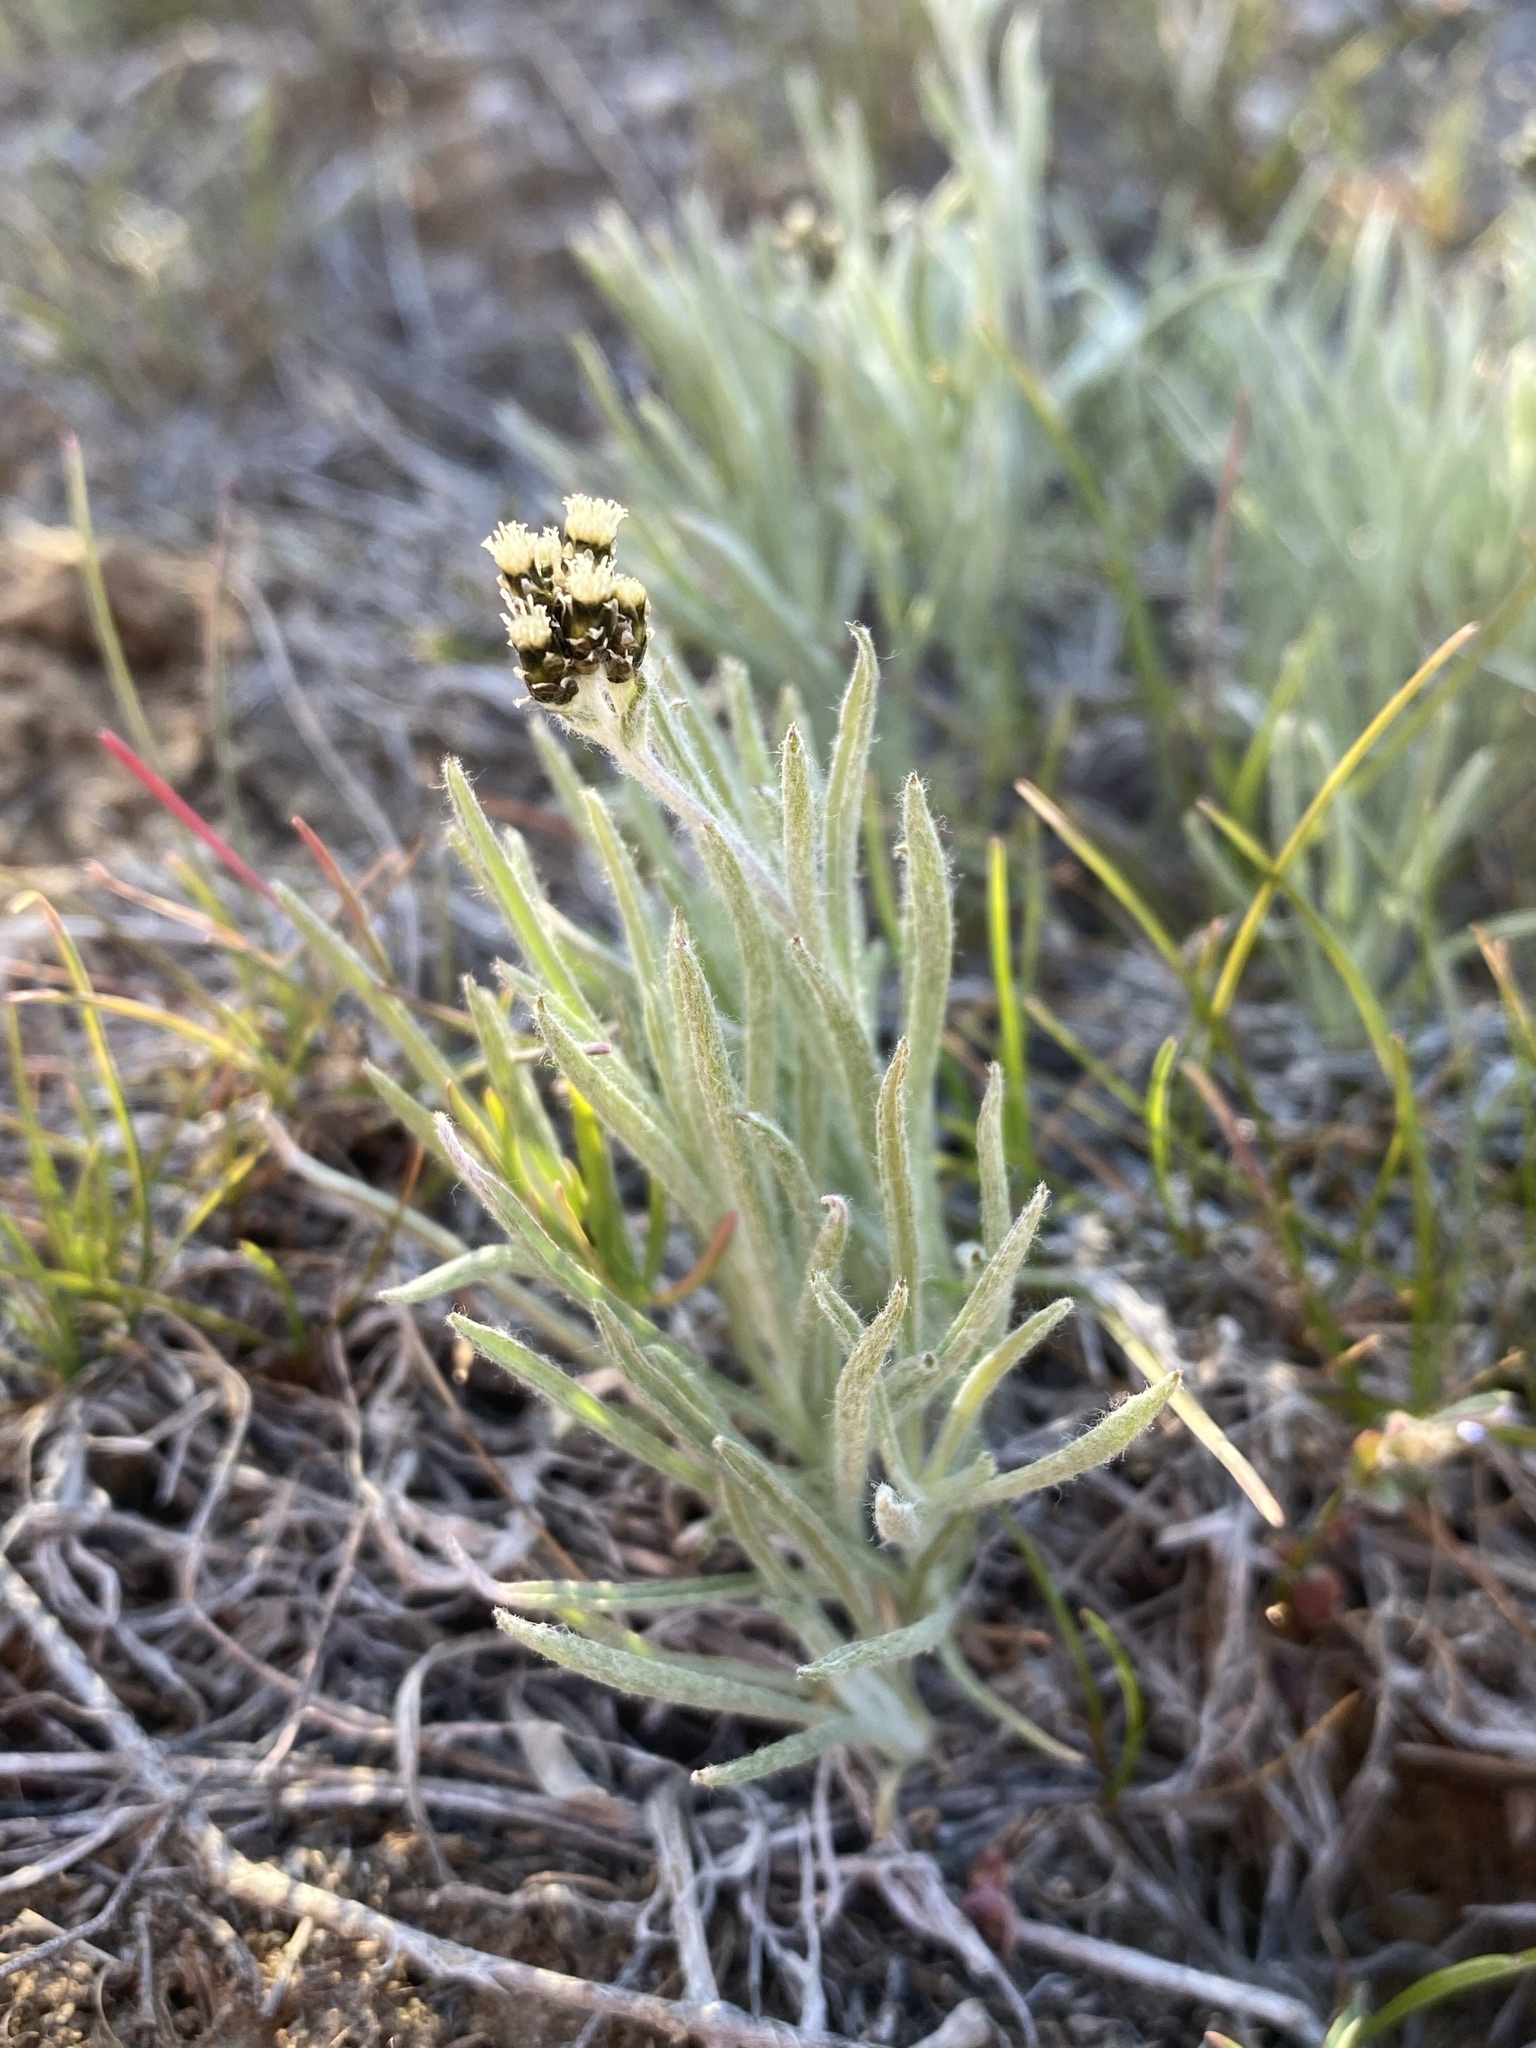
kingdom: Plantae
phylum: Tracheophyta
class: Magnoliopsida
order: Asterales
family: Asteraceae
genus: Antennaria
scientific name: Antennaria stenophylla
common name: Narrow-leaved pussytoes
